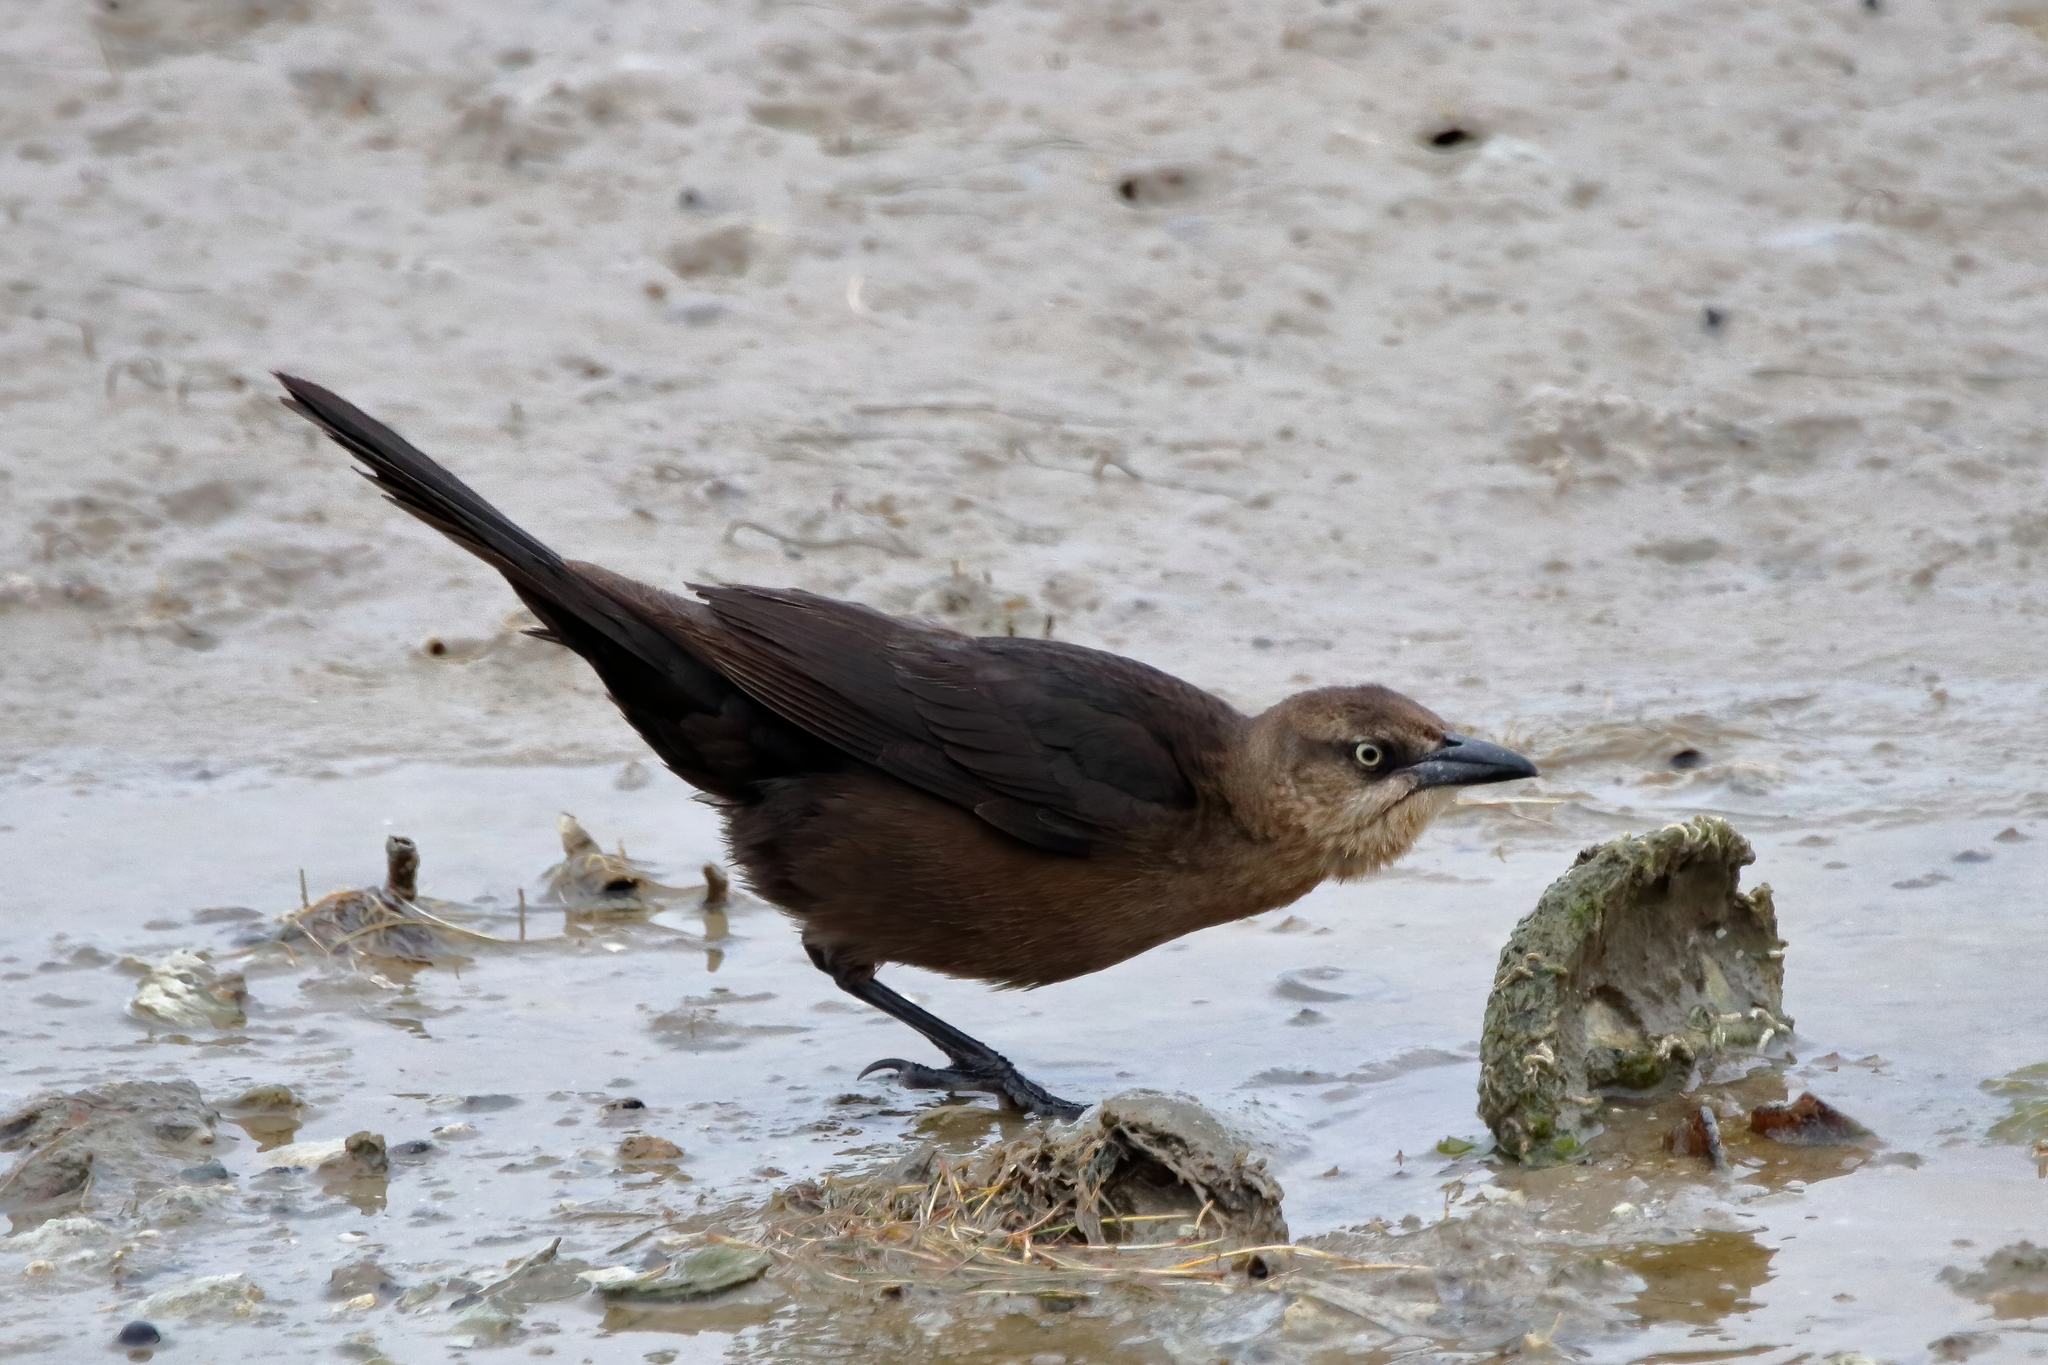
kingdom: Animalia
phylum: Chordata
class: Aves
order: Passeriformes
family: Icteridae
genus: Quiscalus
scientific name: Quiscalus mexicanus
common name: Great-tailed grackle
